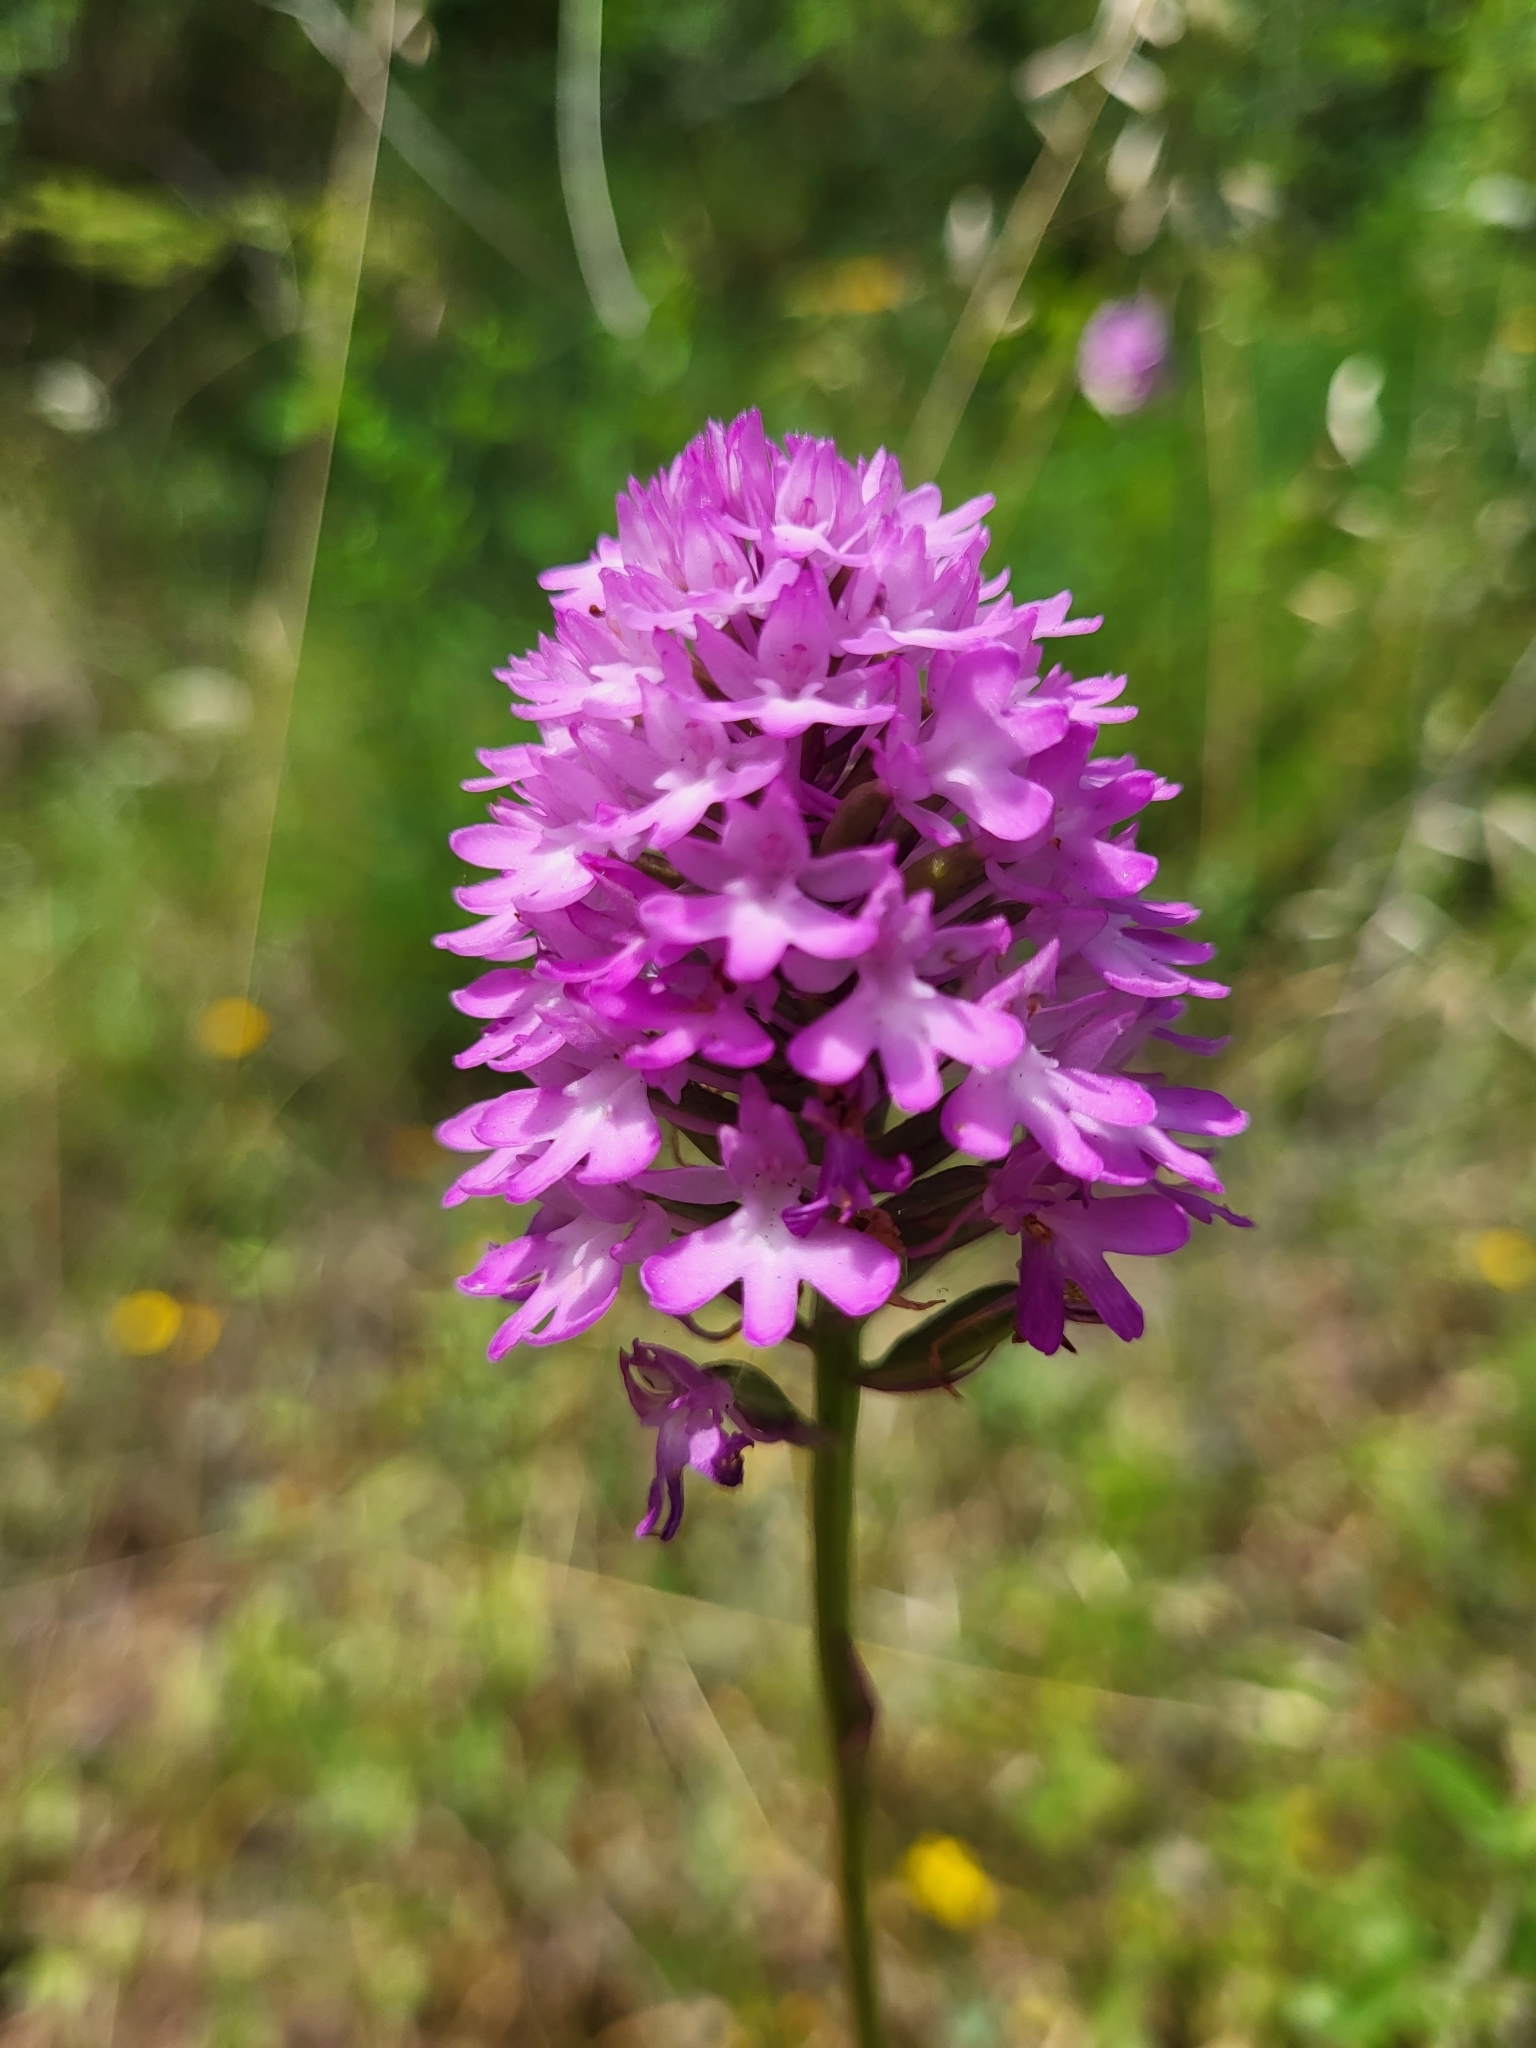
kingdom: Plantae
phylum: Tracheophyta
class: Liliopsida
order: Asparagales
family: Orchidaceae
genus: Anacamptis
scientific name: Anacamptis pyramidalis
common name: Pyramidal orchid
